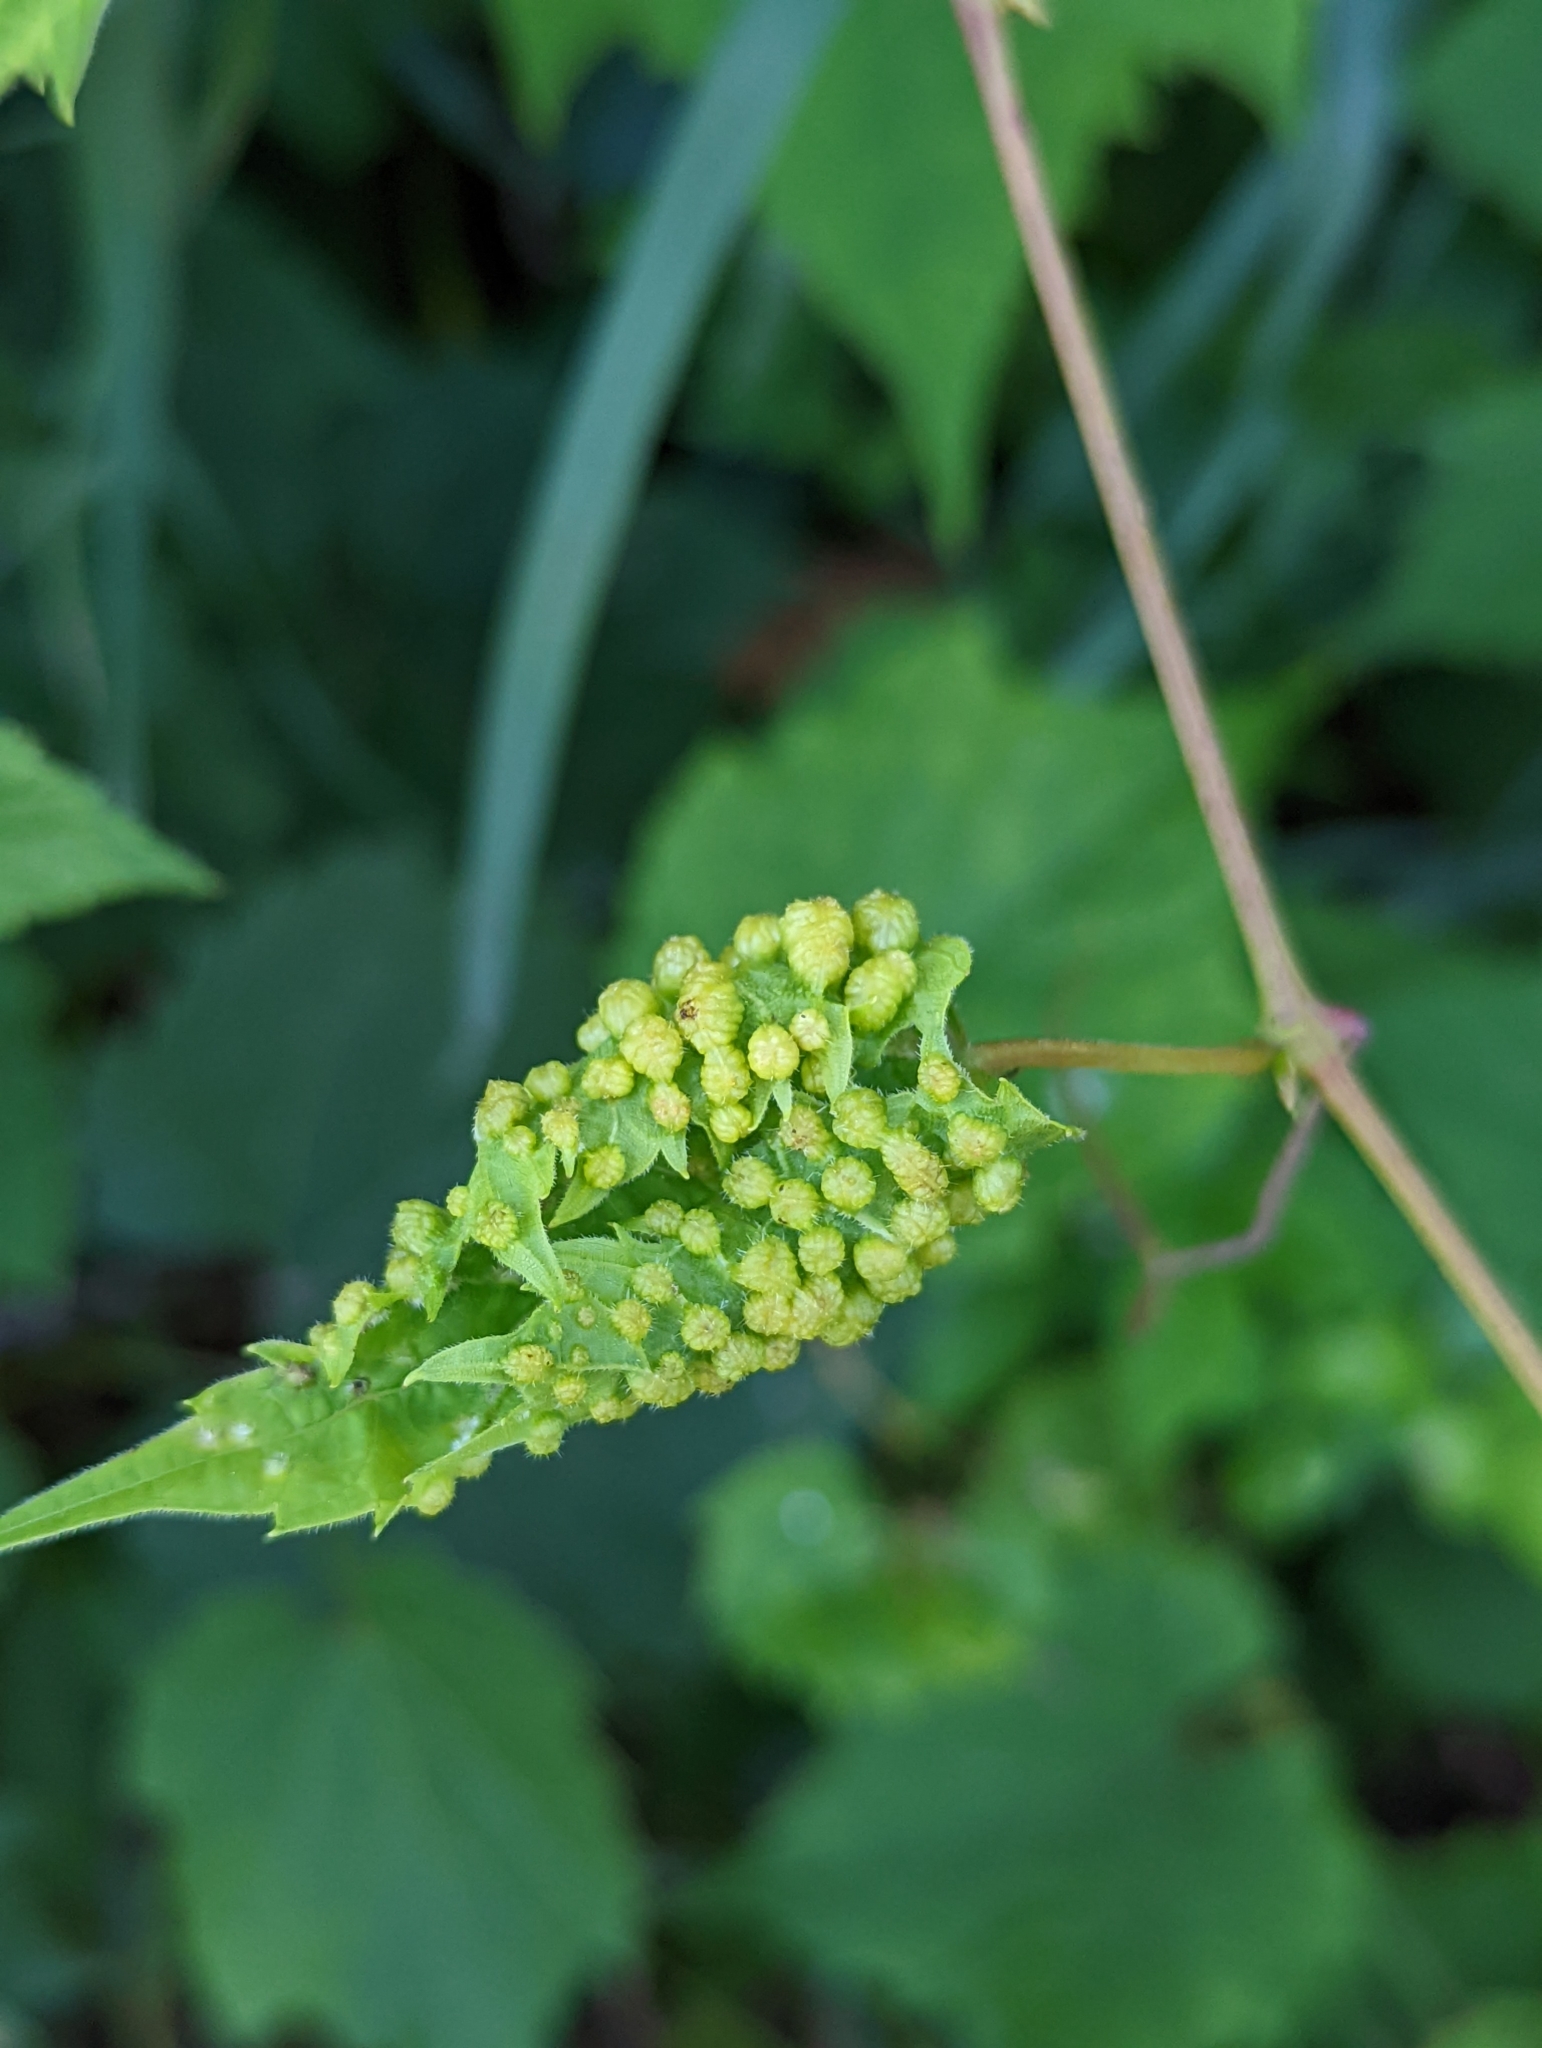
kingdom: Animalia
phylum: Arthropoda
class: Insecta
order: Hemiptera
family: Phylloxeridae
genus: Daktulosphaira
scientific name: Daktulosphaira vitifoliae
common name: Grape phylloxera
